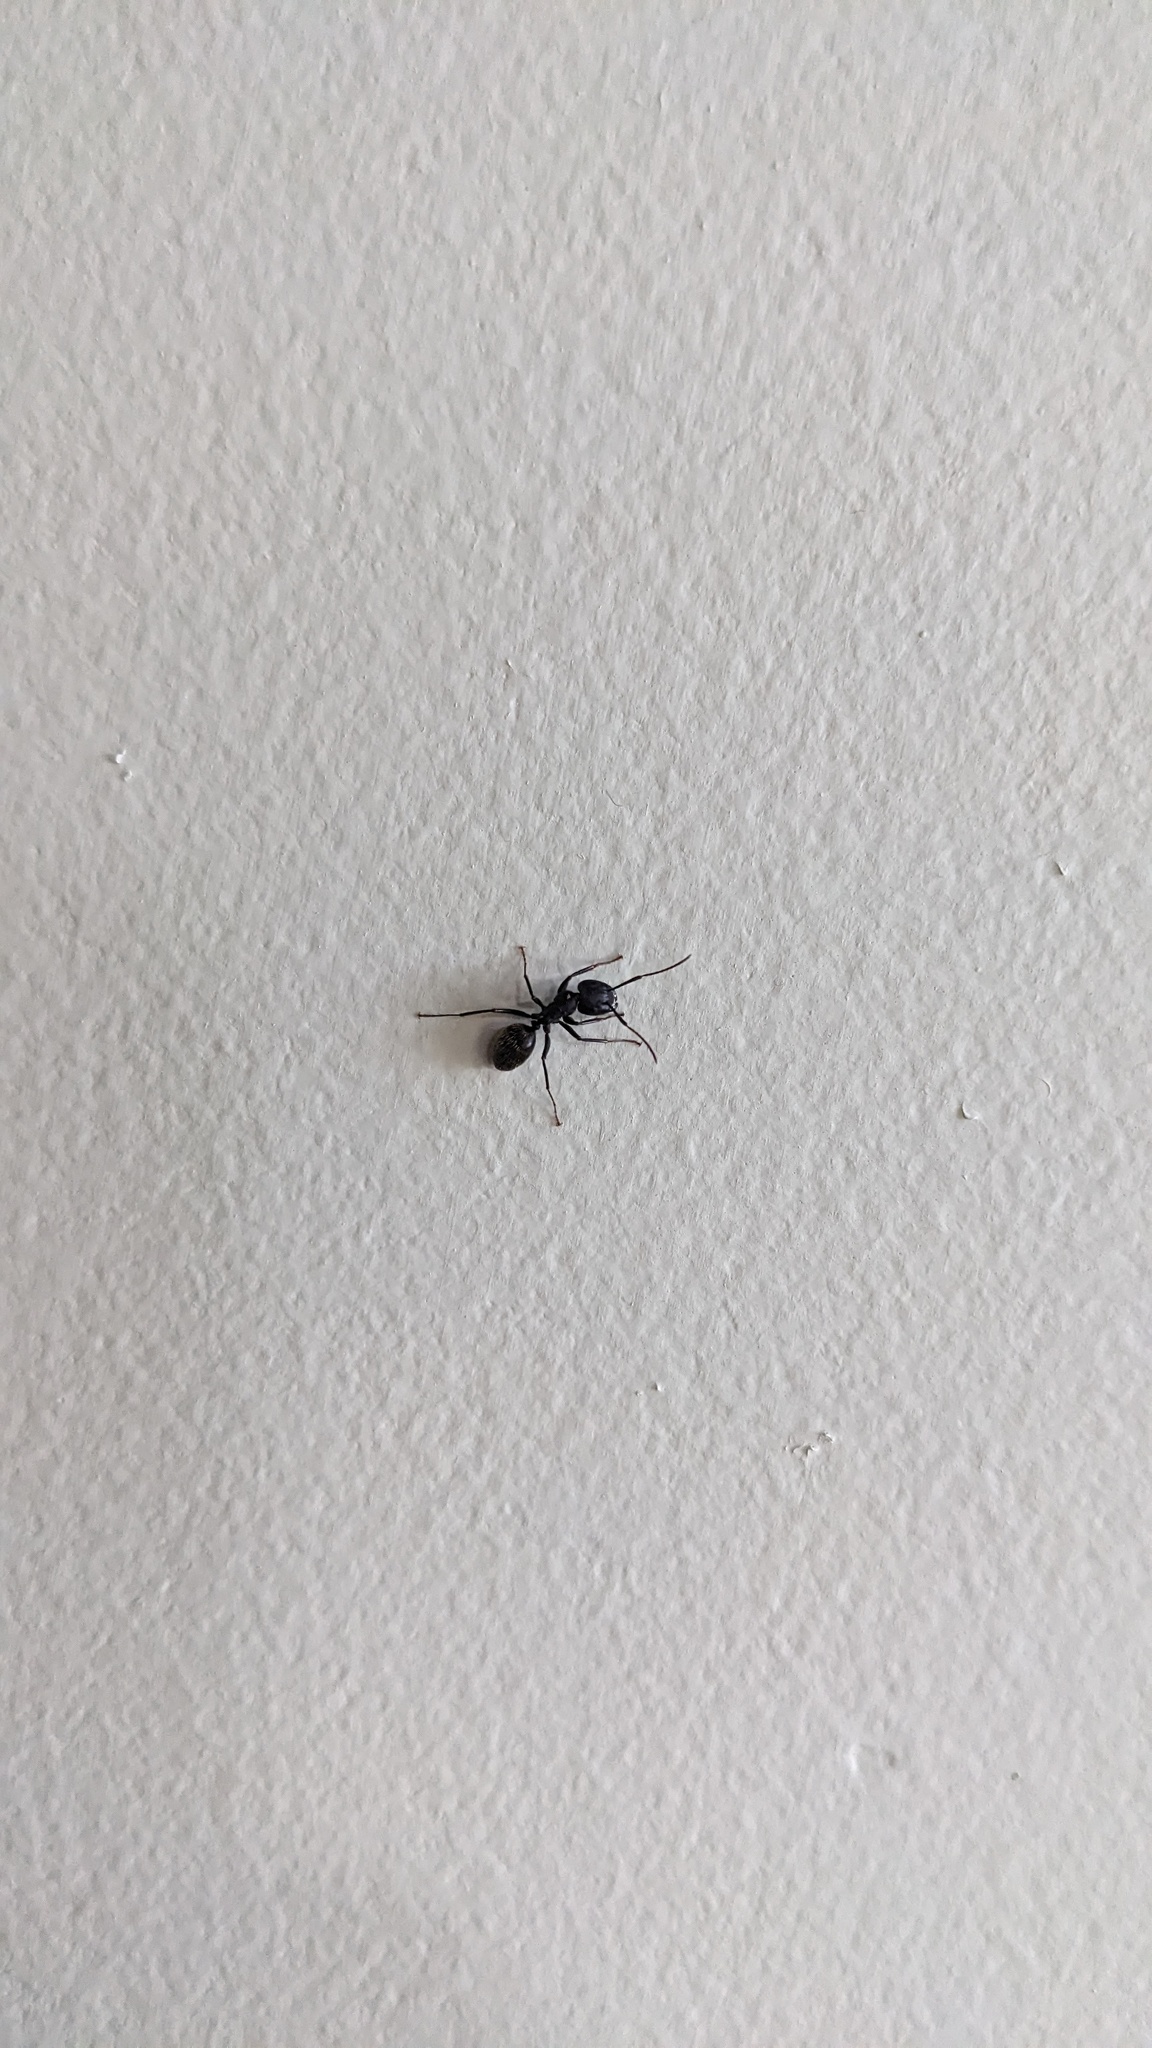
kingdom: Animalia
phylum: Arthropoda
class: Insecta
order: Hymenoptera
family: Formicidae
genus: Camponotus
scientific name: Camponotus pennsylvanicus
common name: Black carpenter ant
